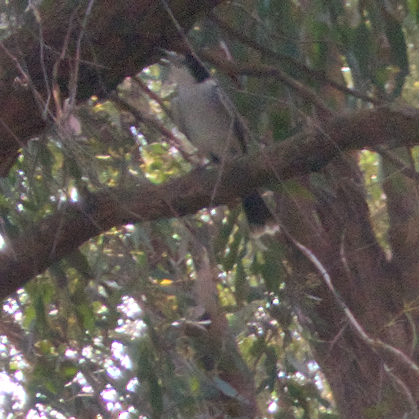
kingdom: Animalia
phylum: Chordata
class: Aves
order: Passeriformes
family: Cracticidae
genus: Cracticus
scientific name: Cracticus torquatus
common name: Grey butcherbird
